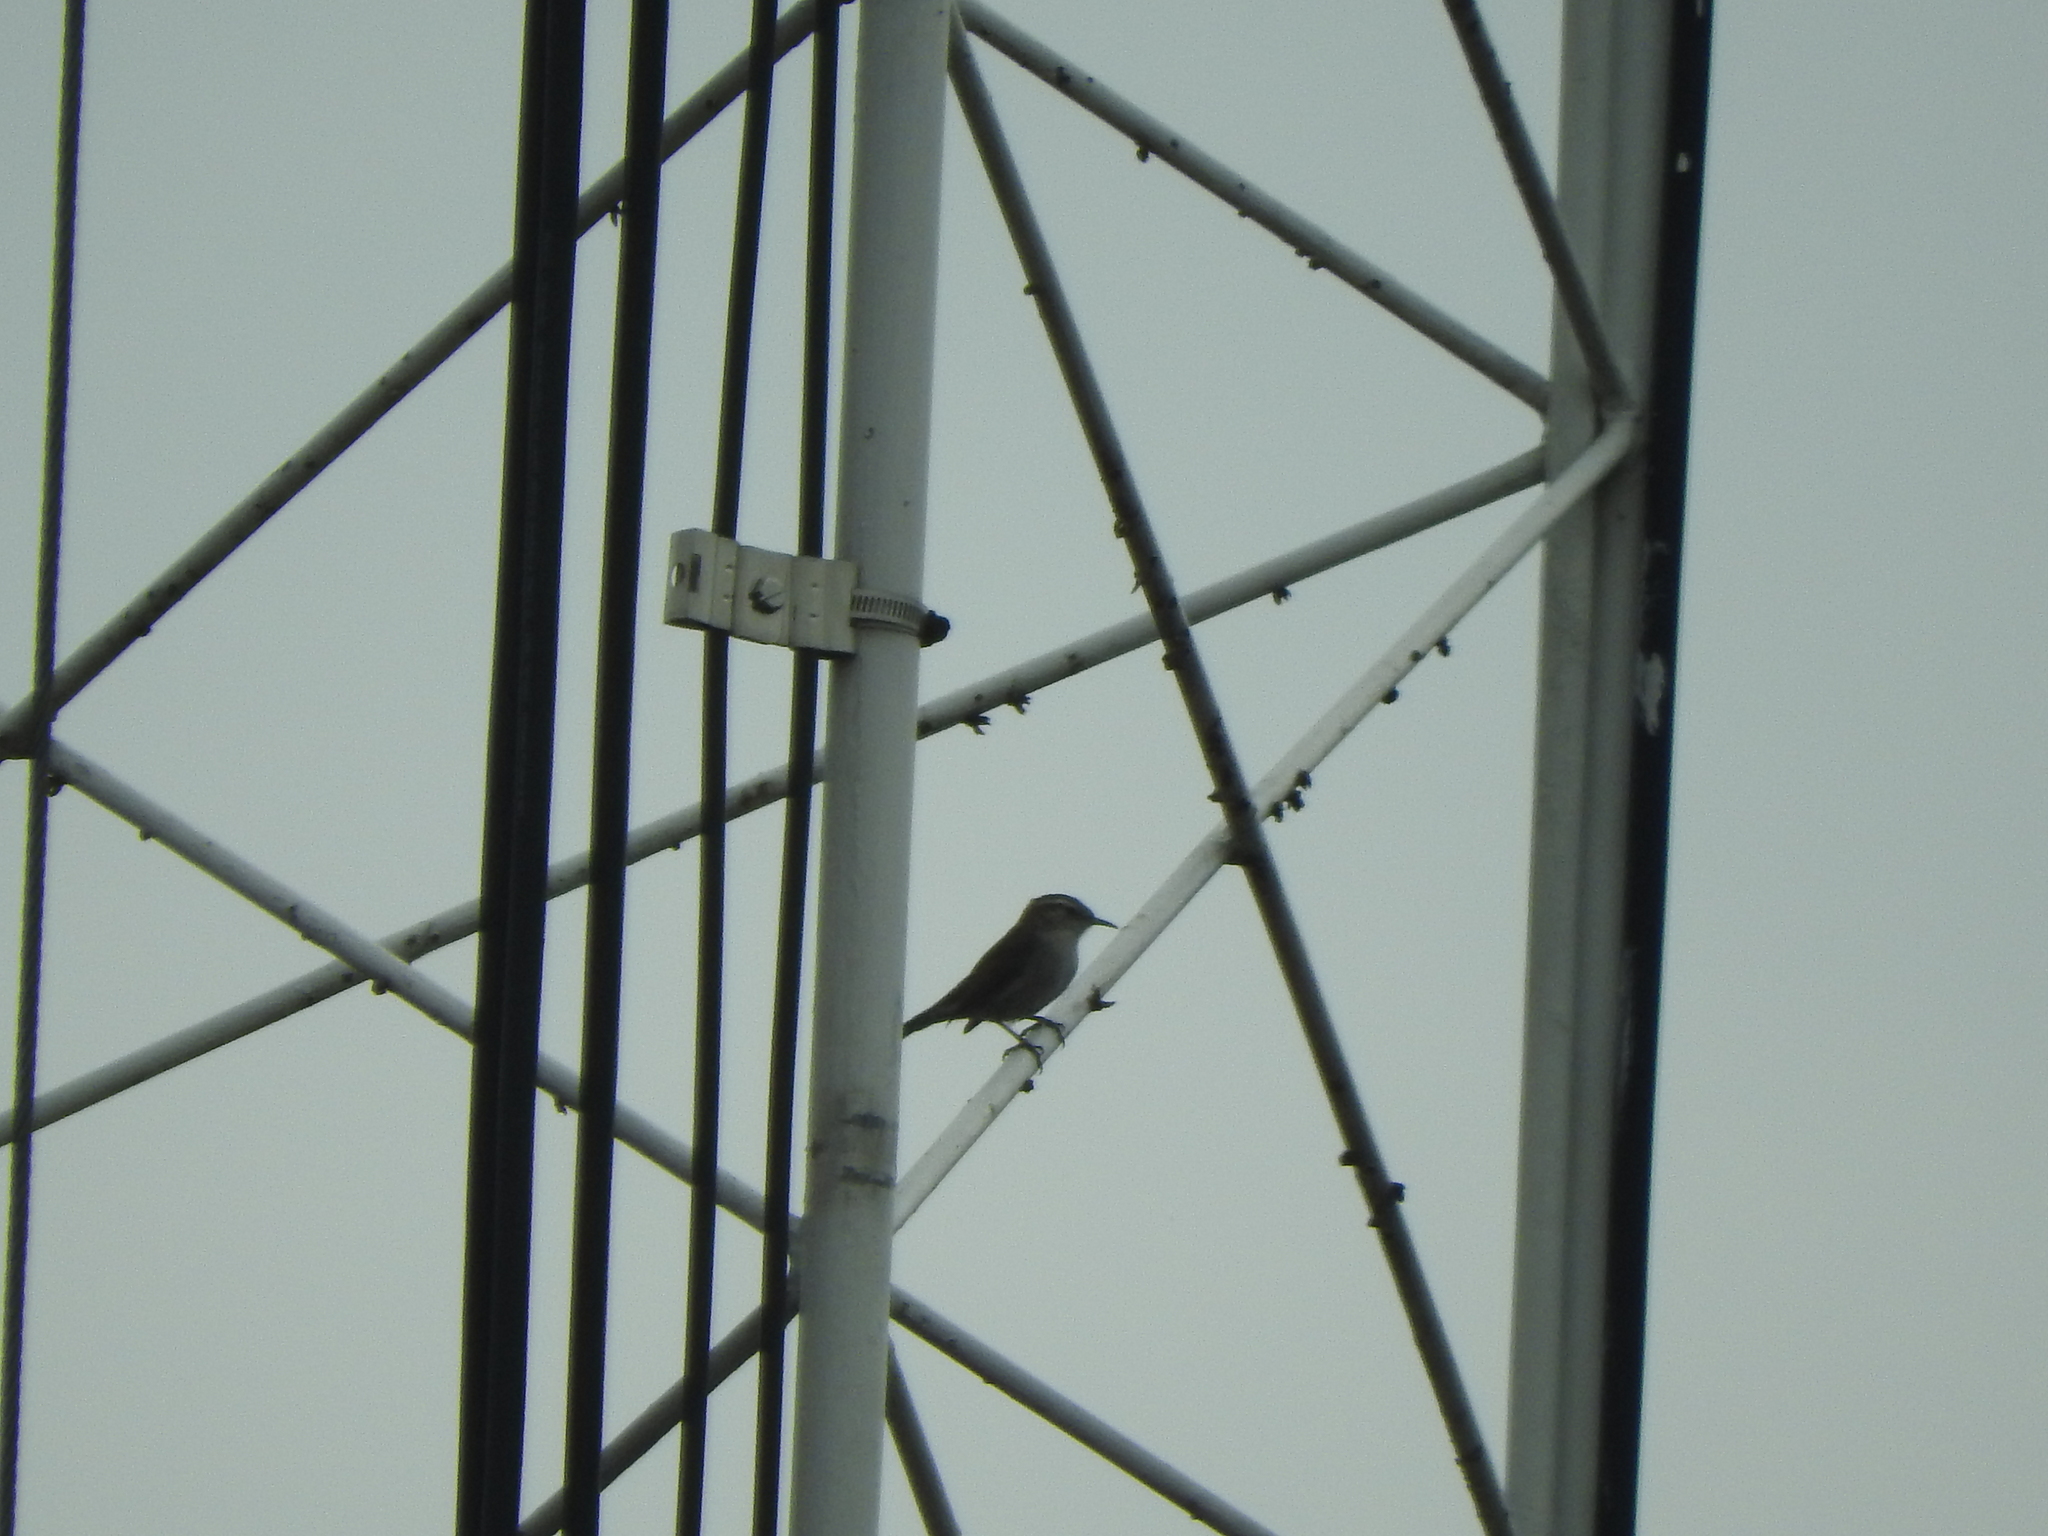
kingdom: Animalia
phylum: Chordata
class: Aves
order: Passeriformes
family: Troglodytidae
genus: Thryomanes
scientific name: Thryomanes bewickii
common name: Bewick's wren
